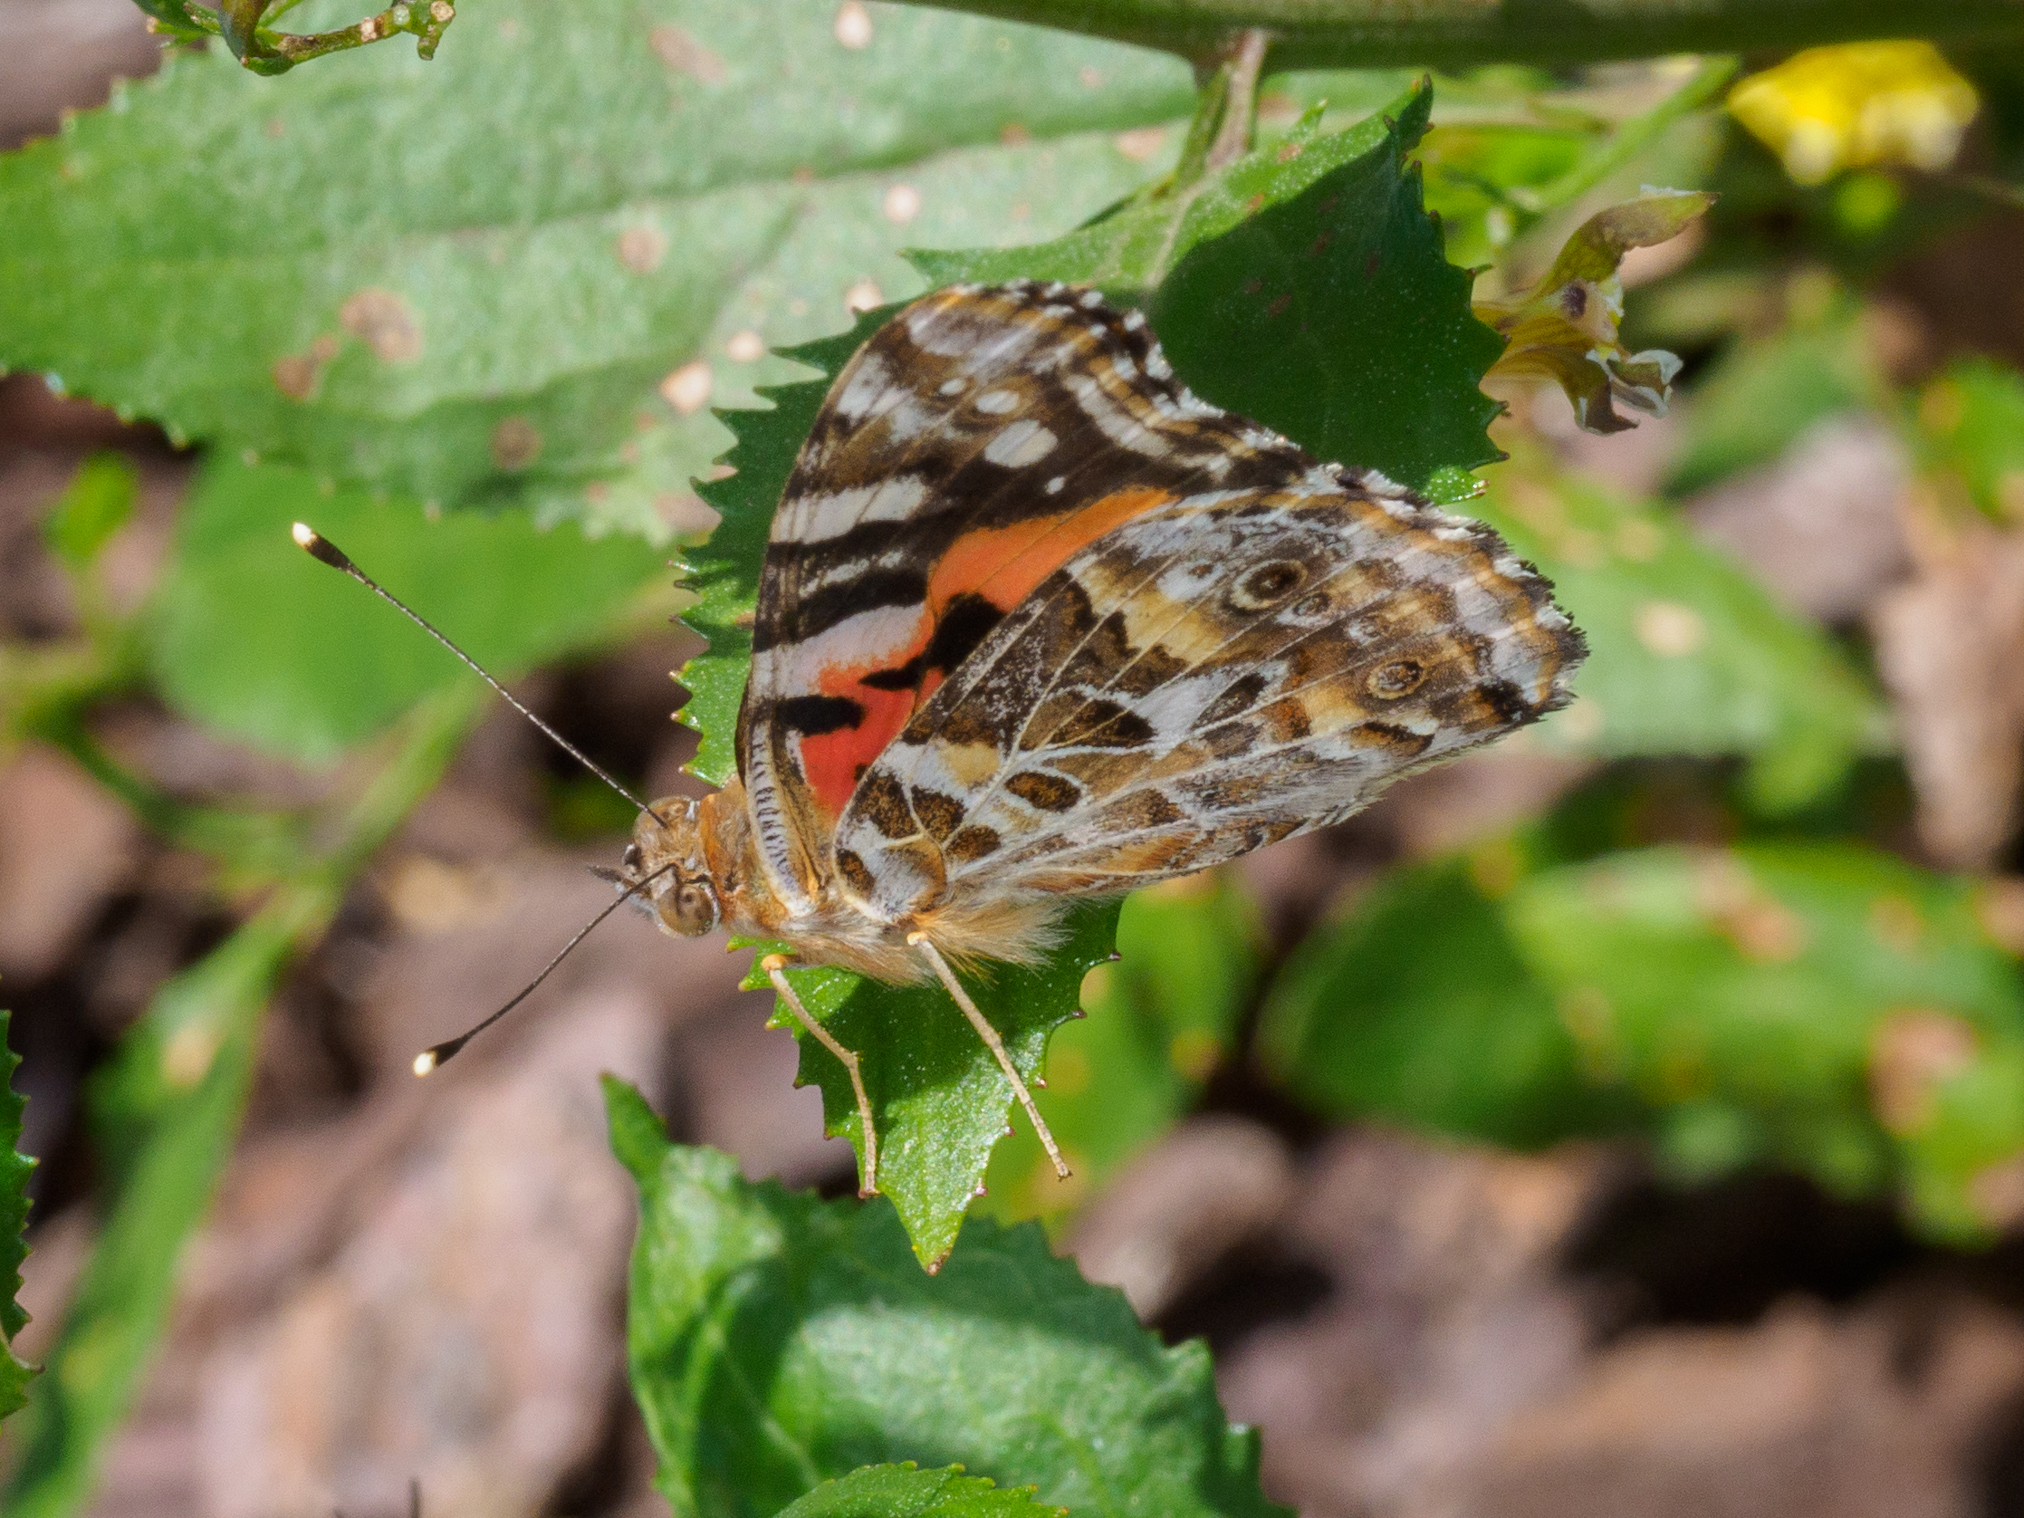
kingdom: Animalia
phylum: Arthropoda
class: Insecta
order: Lepidoptera
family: Nymphalidae
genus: Vanessa
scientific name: Vanessa kershawi
